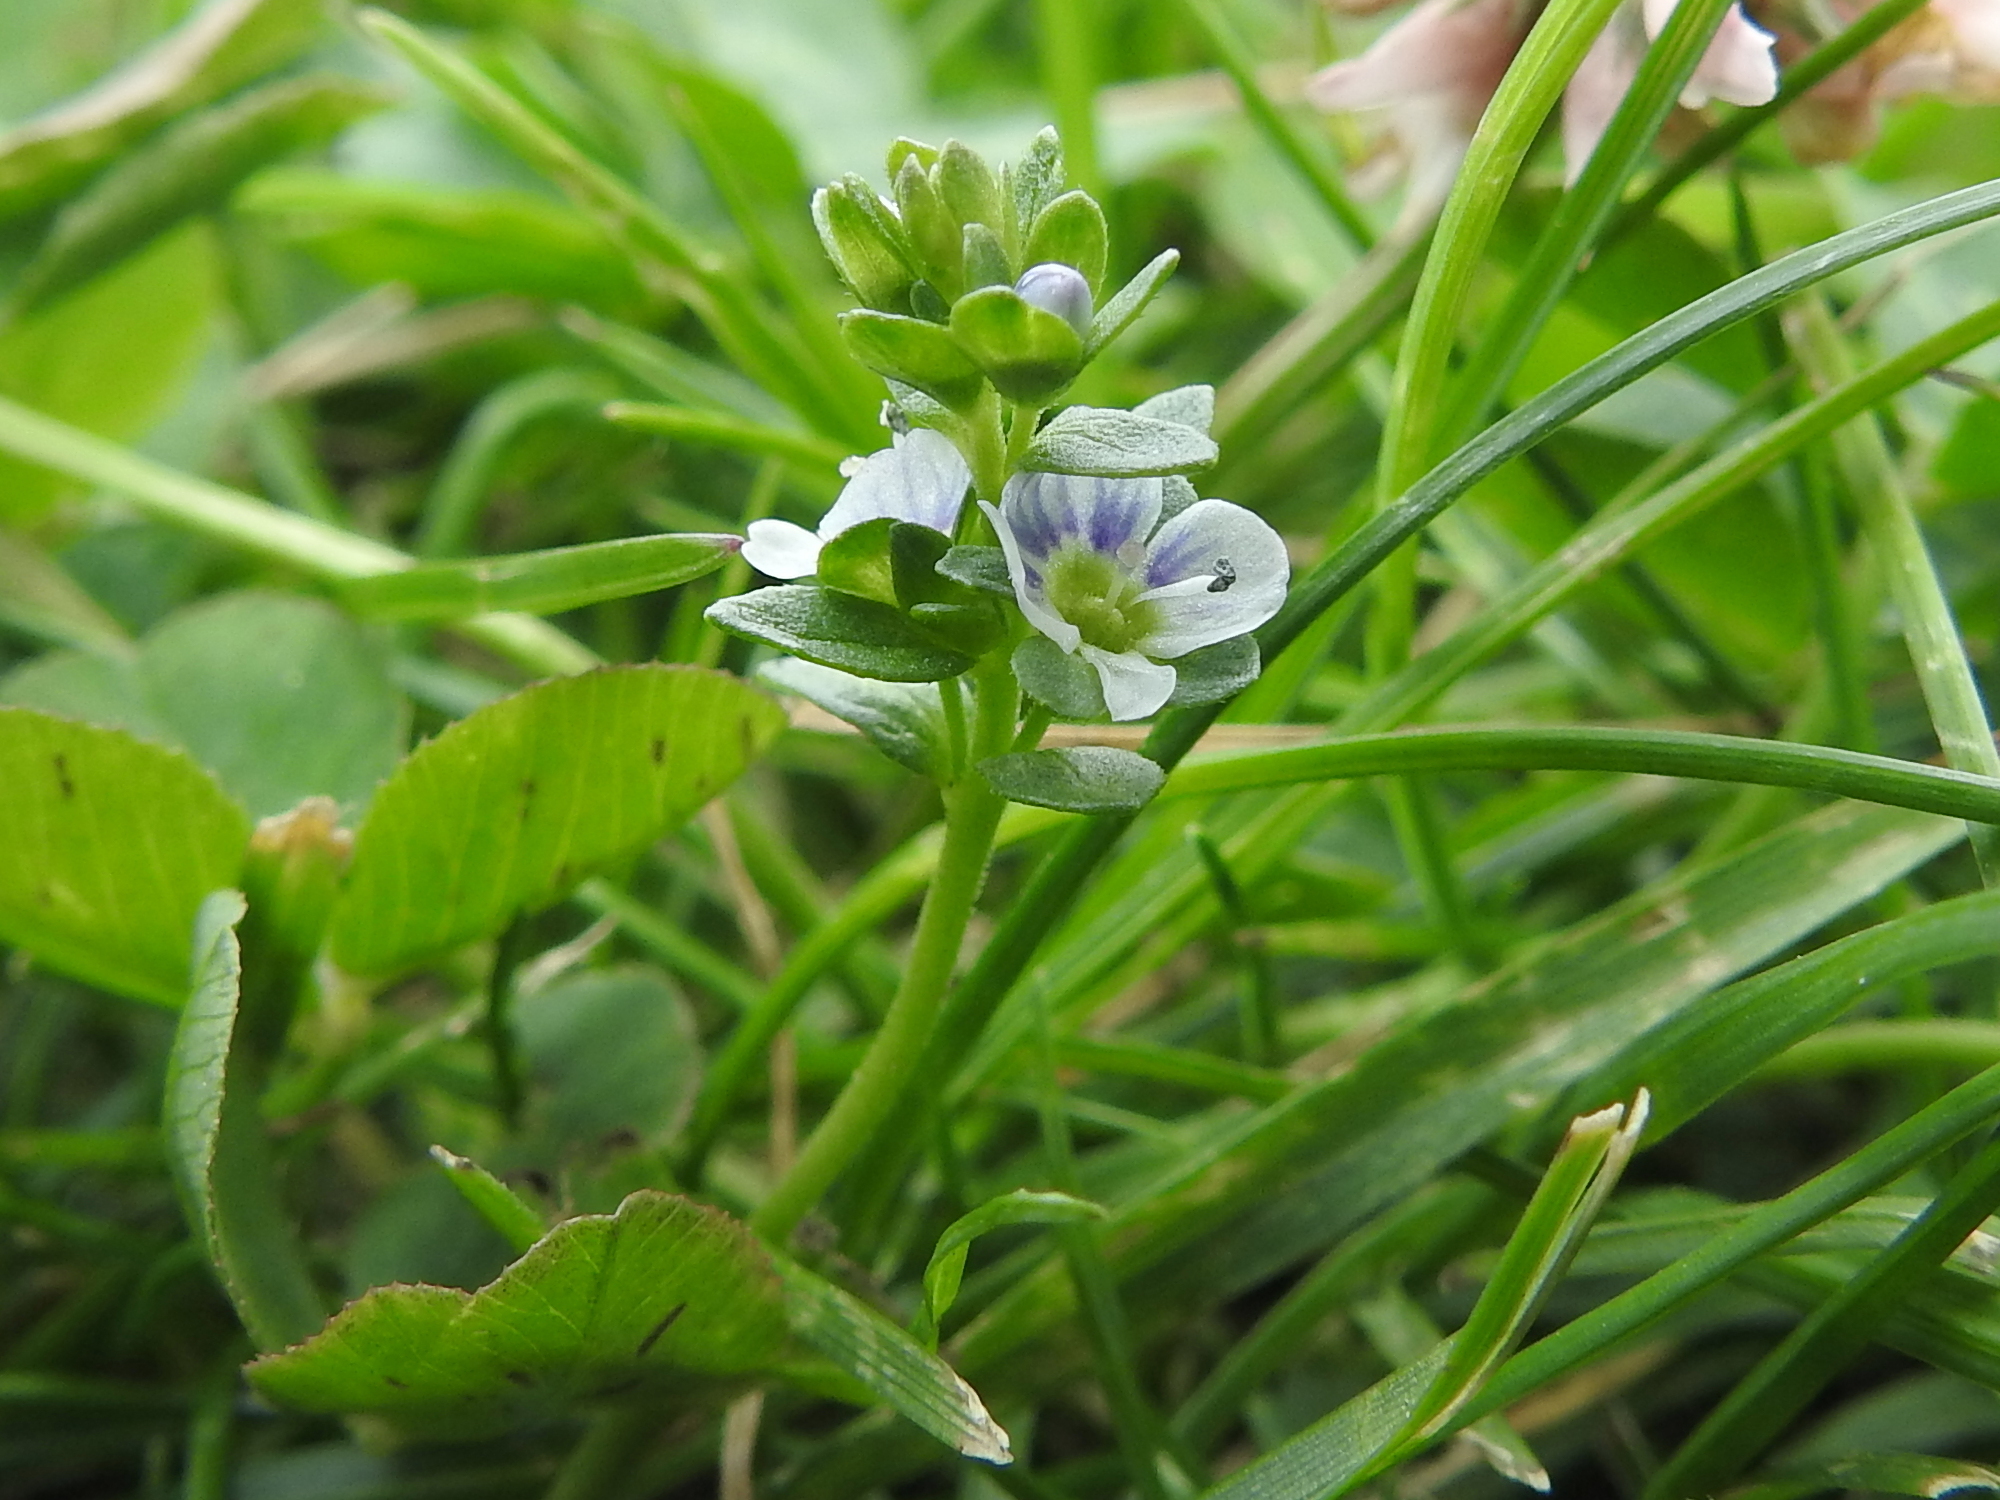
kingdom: Plantae
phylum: Tracheophyta
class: Magnoliopsida
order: Lamiales
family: Plantaginaceae
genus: Veronica
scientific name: Veronica serpyllifolia
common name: Thyme-leaved speedwell
